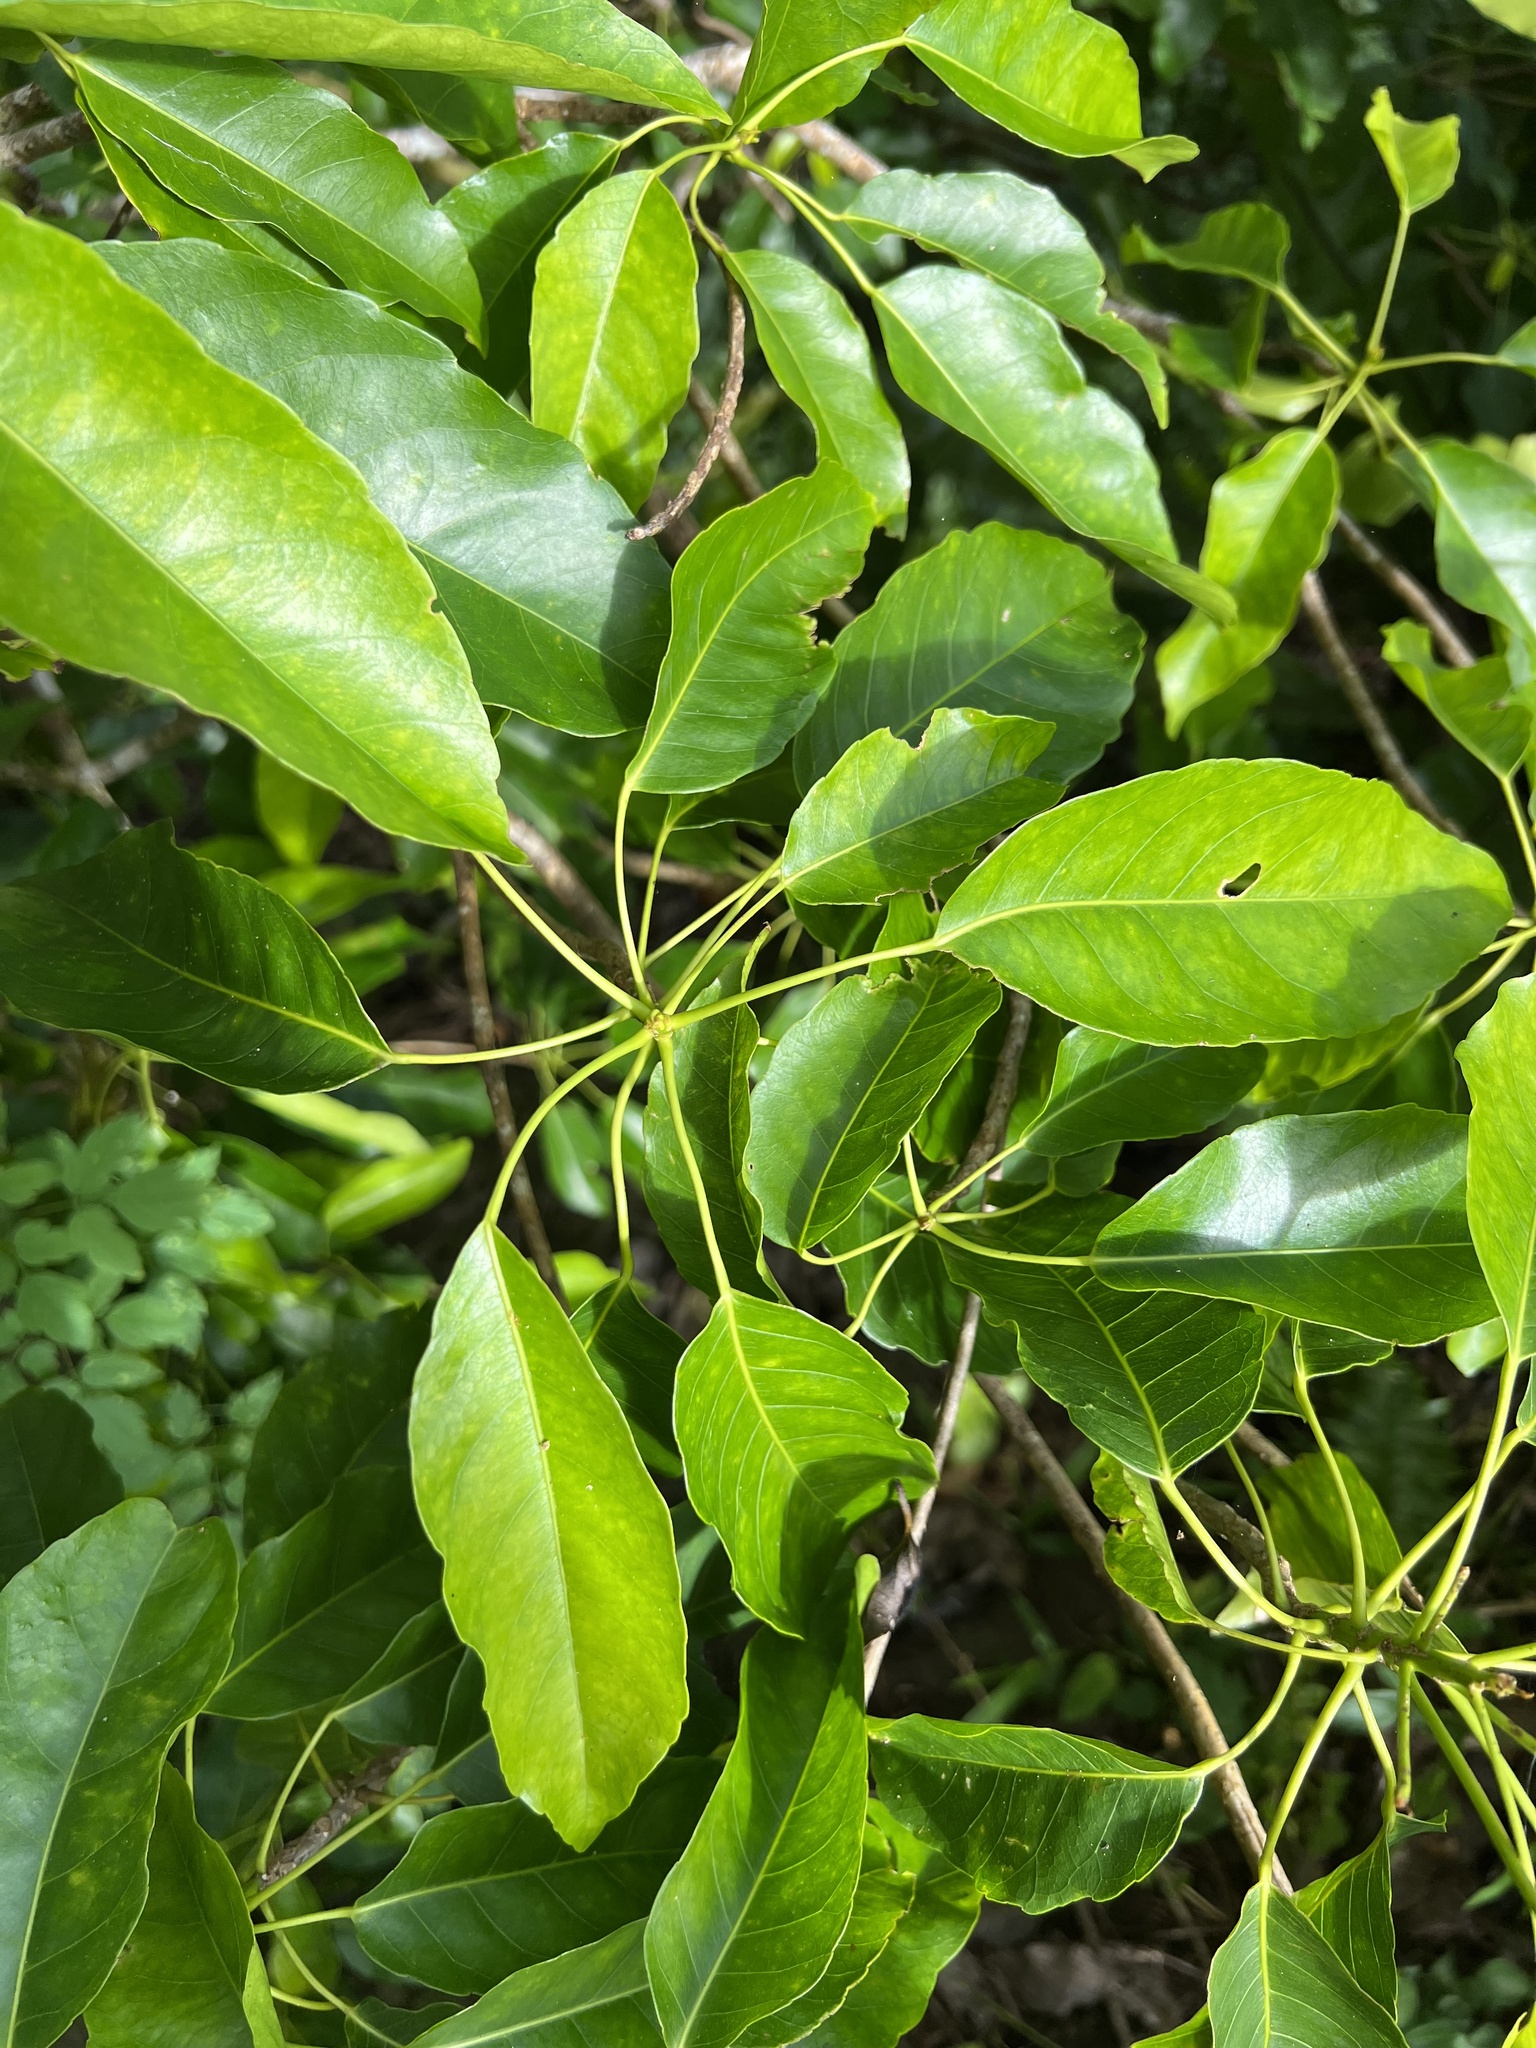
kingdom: Plantae
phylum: Tracheophyta
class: Magnoliopsida
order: Oxalidales
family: Elaeocarpaceae
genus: Elaeocarpus
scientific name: Elaeocarpus floridanus
